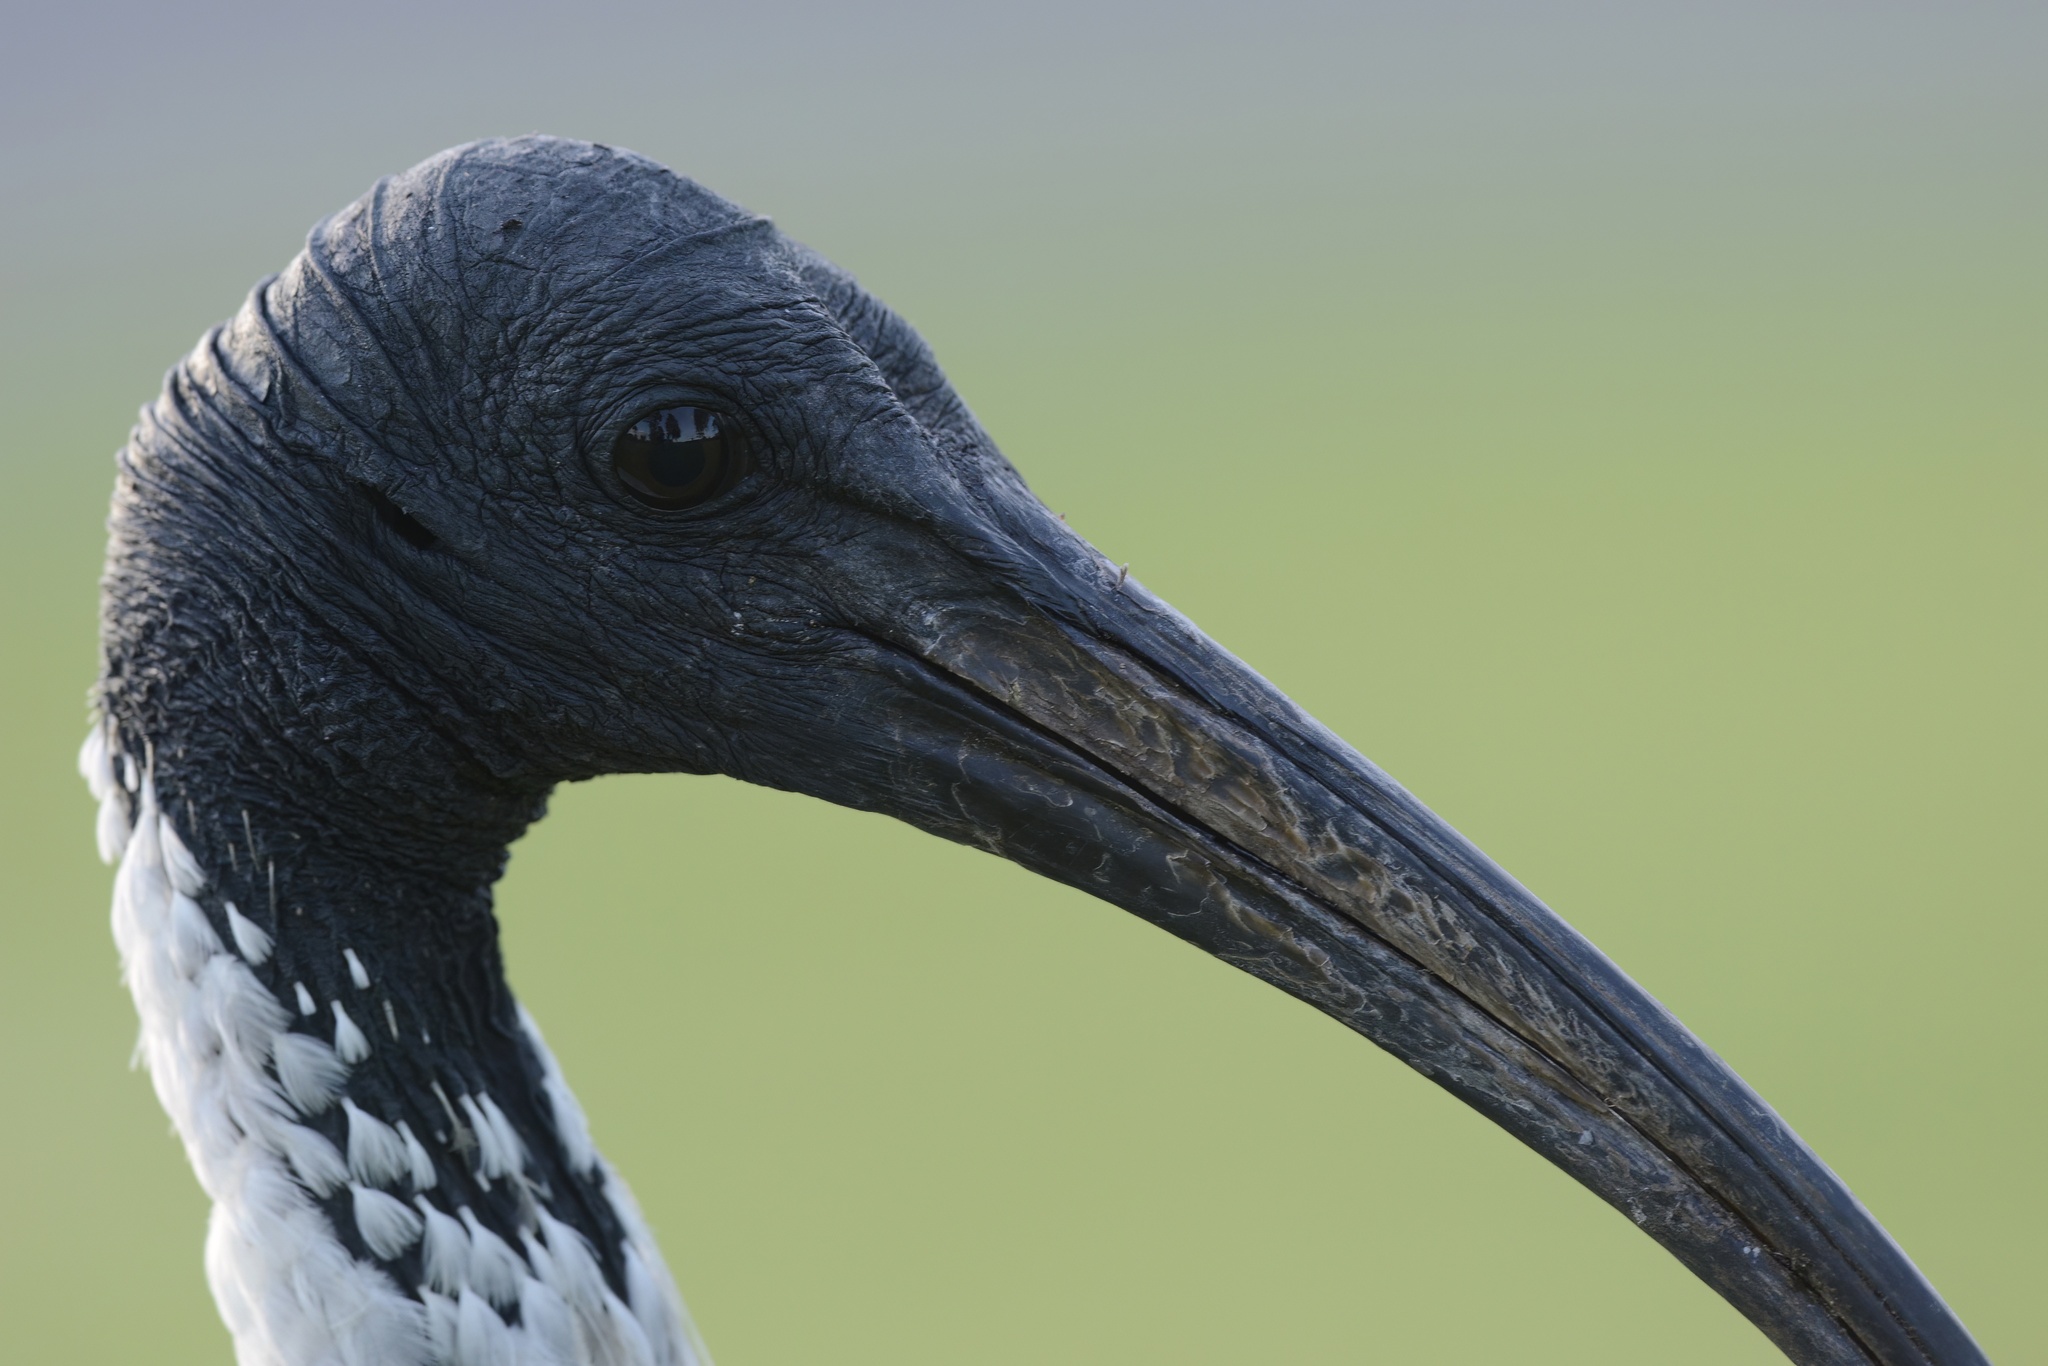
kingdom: Animalia
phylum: Chordata
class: Aves
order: Pelecaniformes
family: Threskiornithidae
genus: Threskiornis
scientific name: Threskiornis molucca
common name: Australian white ibis
